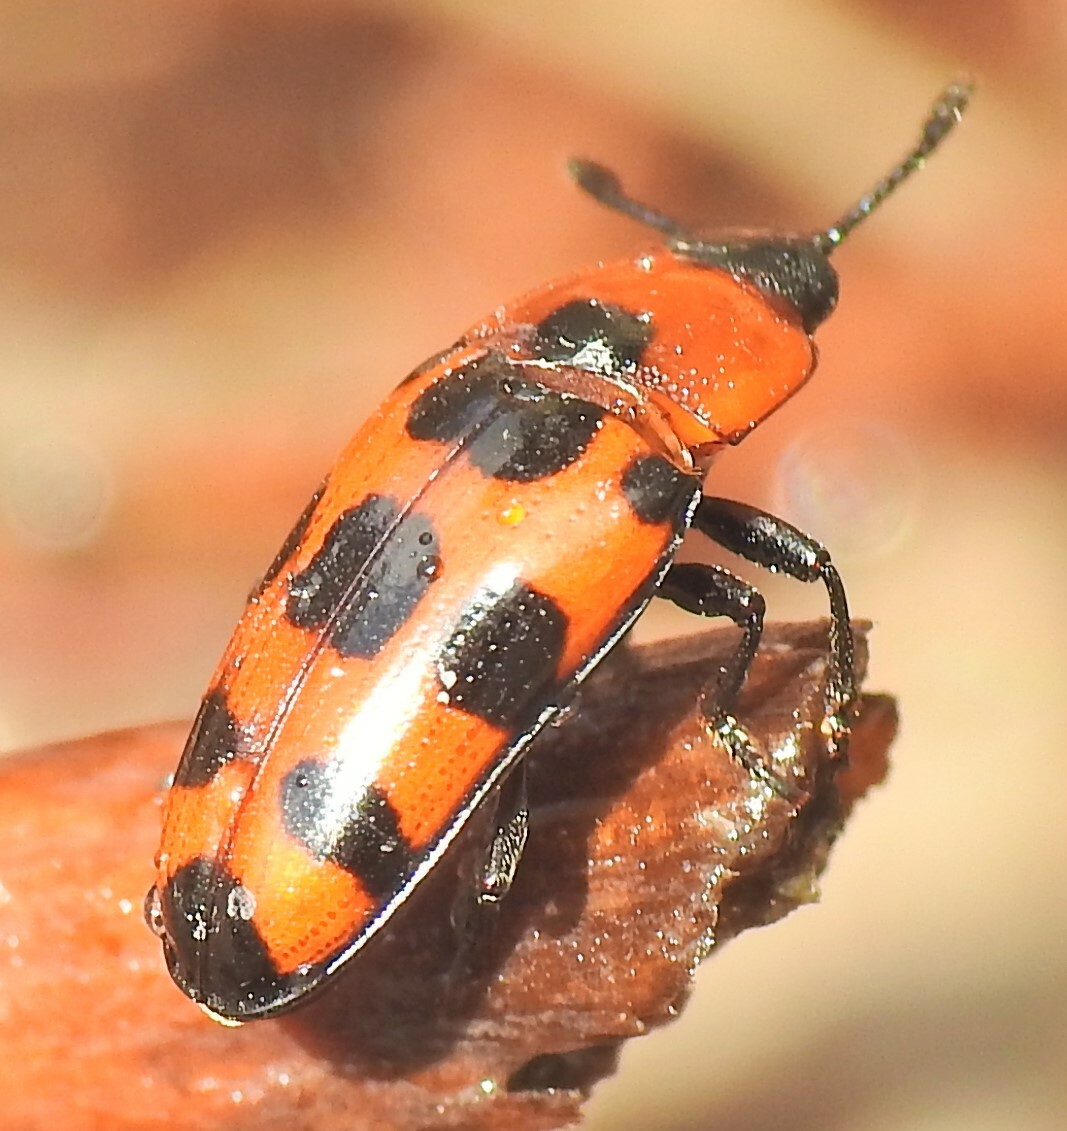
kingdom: Animalia
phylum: Arthropoda
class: Insecta
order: Coleoptera
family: Erotylidae
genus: Episcaphula
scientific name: Episcaphula australis
